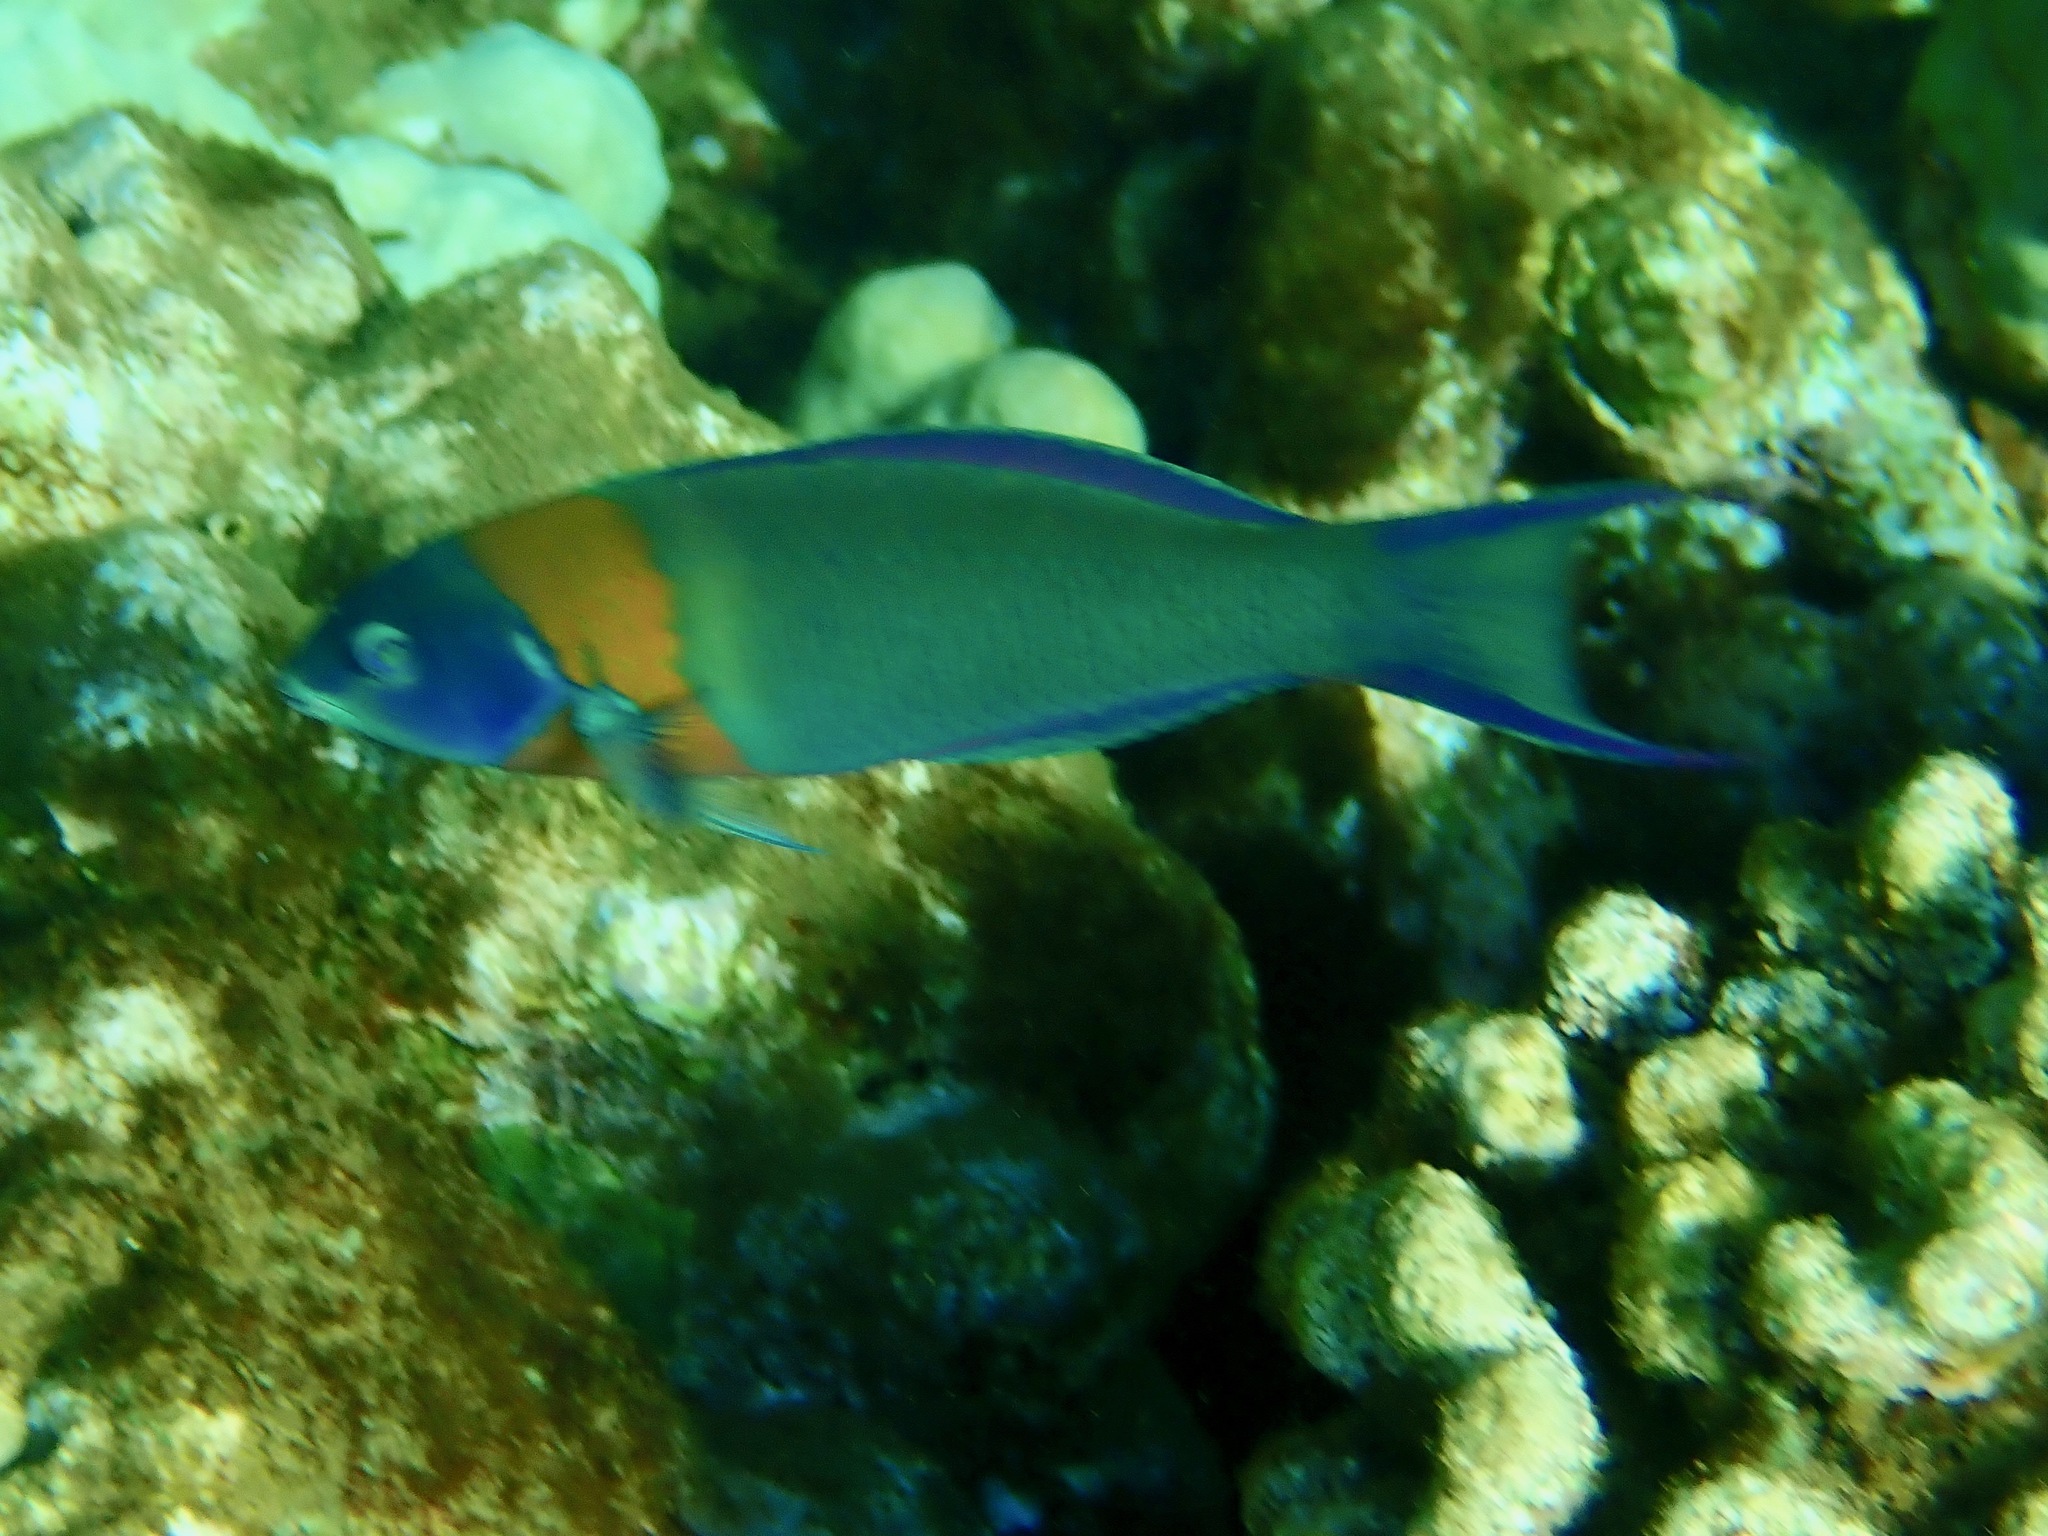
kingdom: Animalia
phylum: Chordata
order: Perciformes
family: Labridae
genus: Thalassoma
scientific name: Thalassoma duperrey
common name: Saddle wrasse
